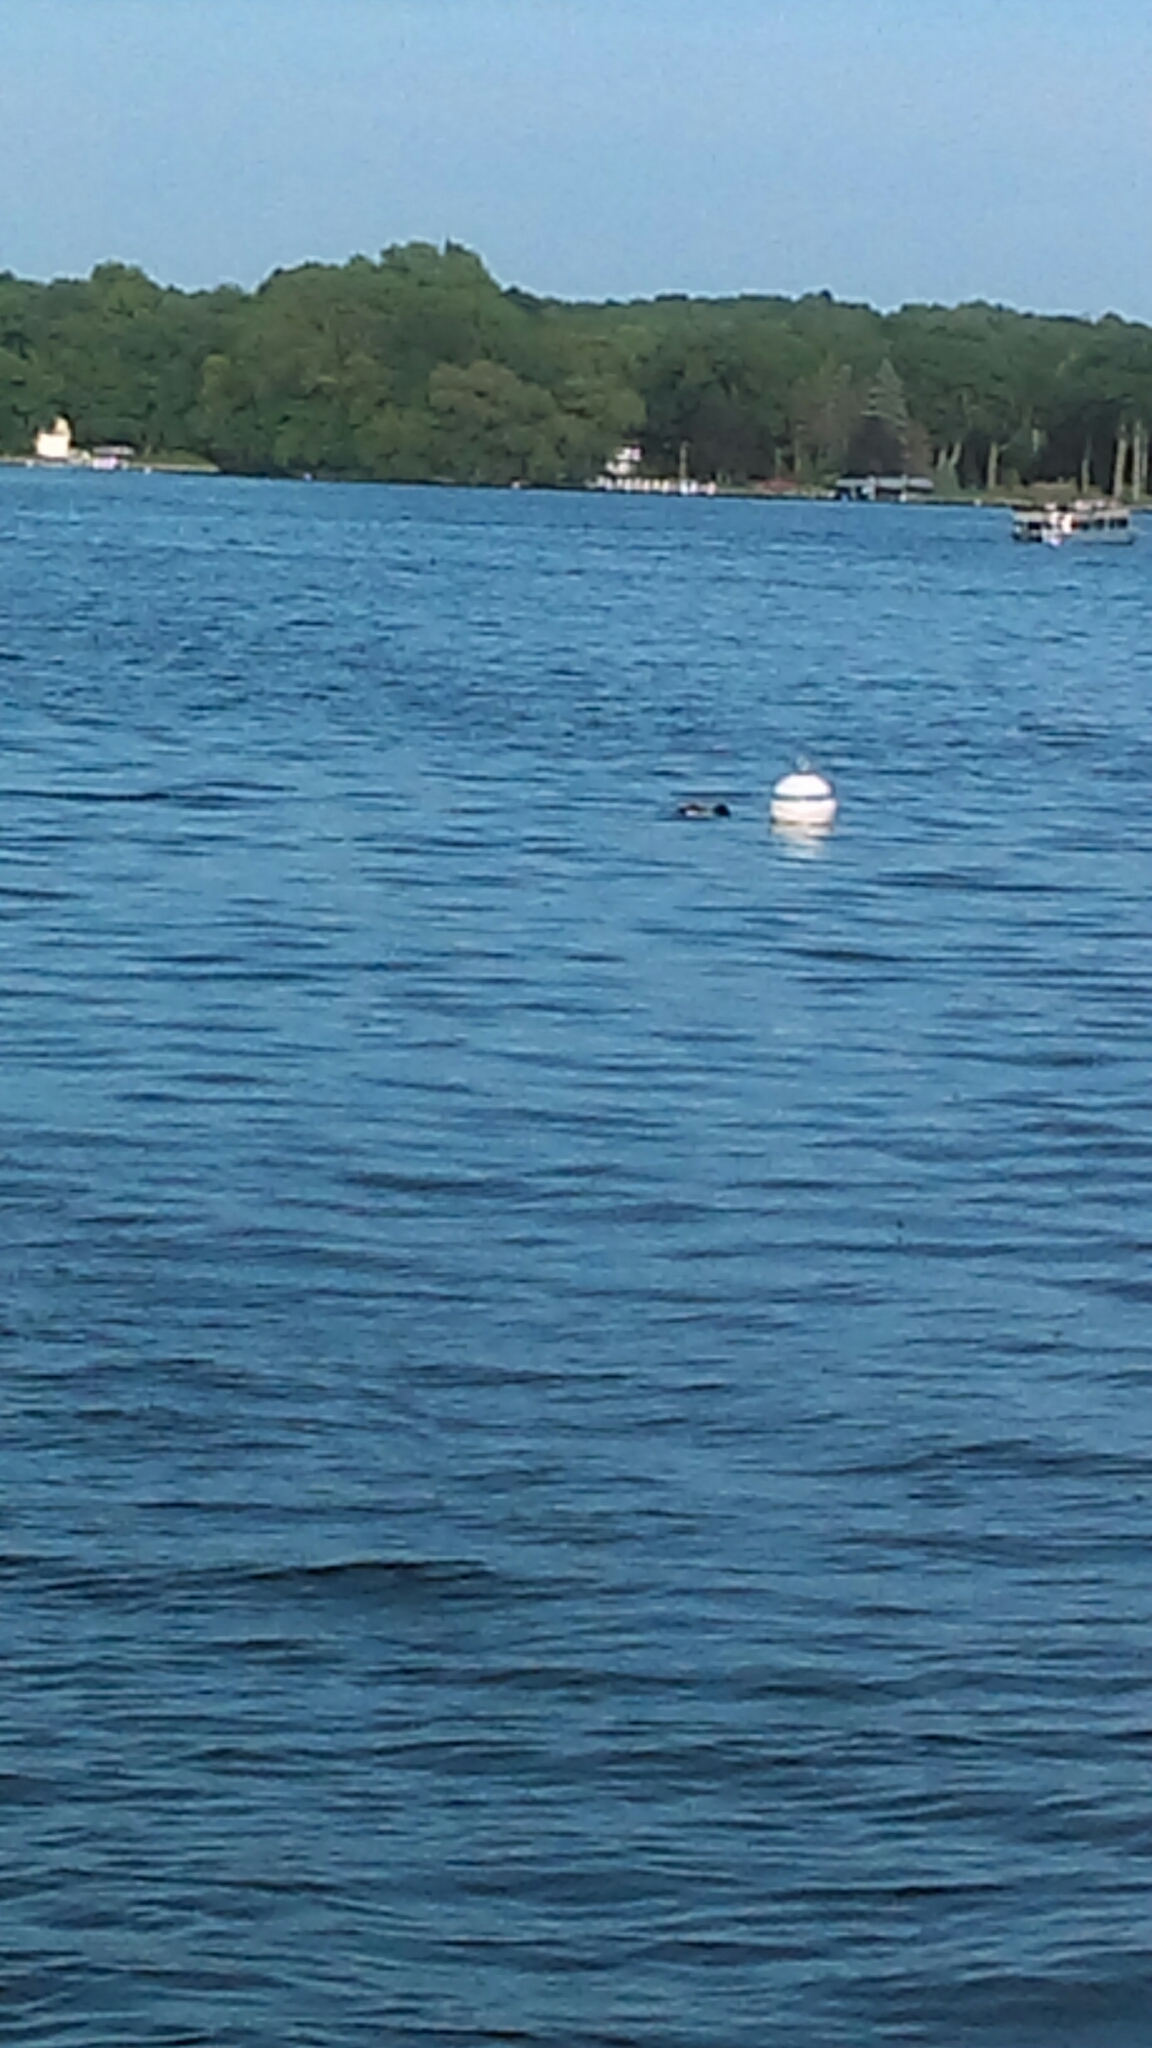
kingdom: Animalia
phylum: Chordata
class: Aves
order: Anseriformes
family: Anatidae
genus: Anas
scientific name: Anas platyrhynchos
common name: Mallard
